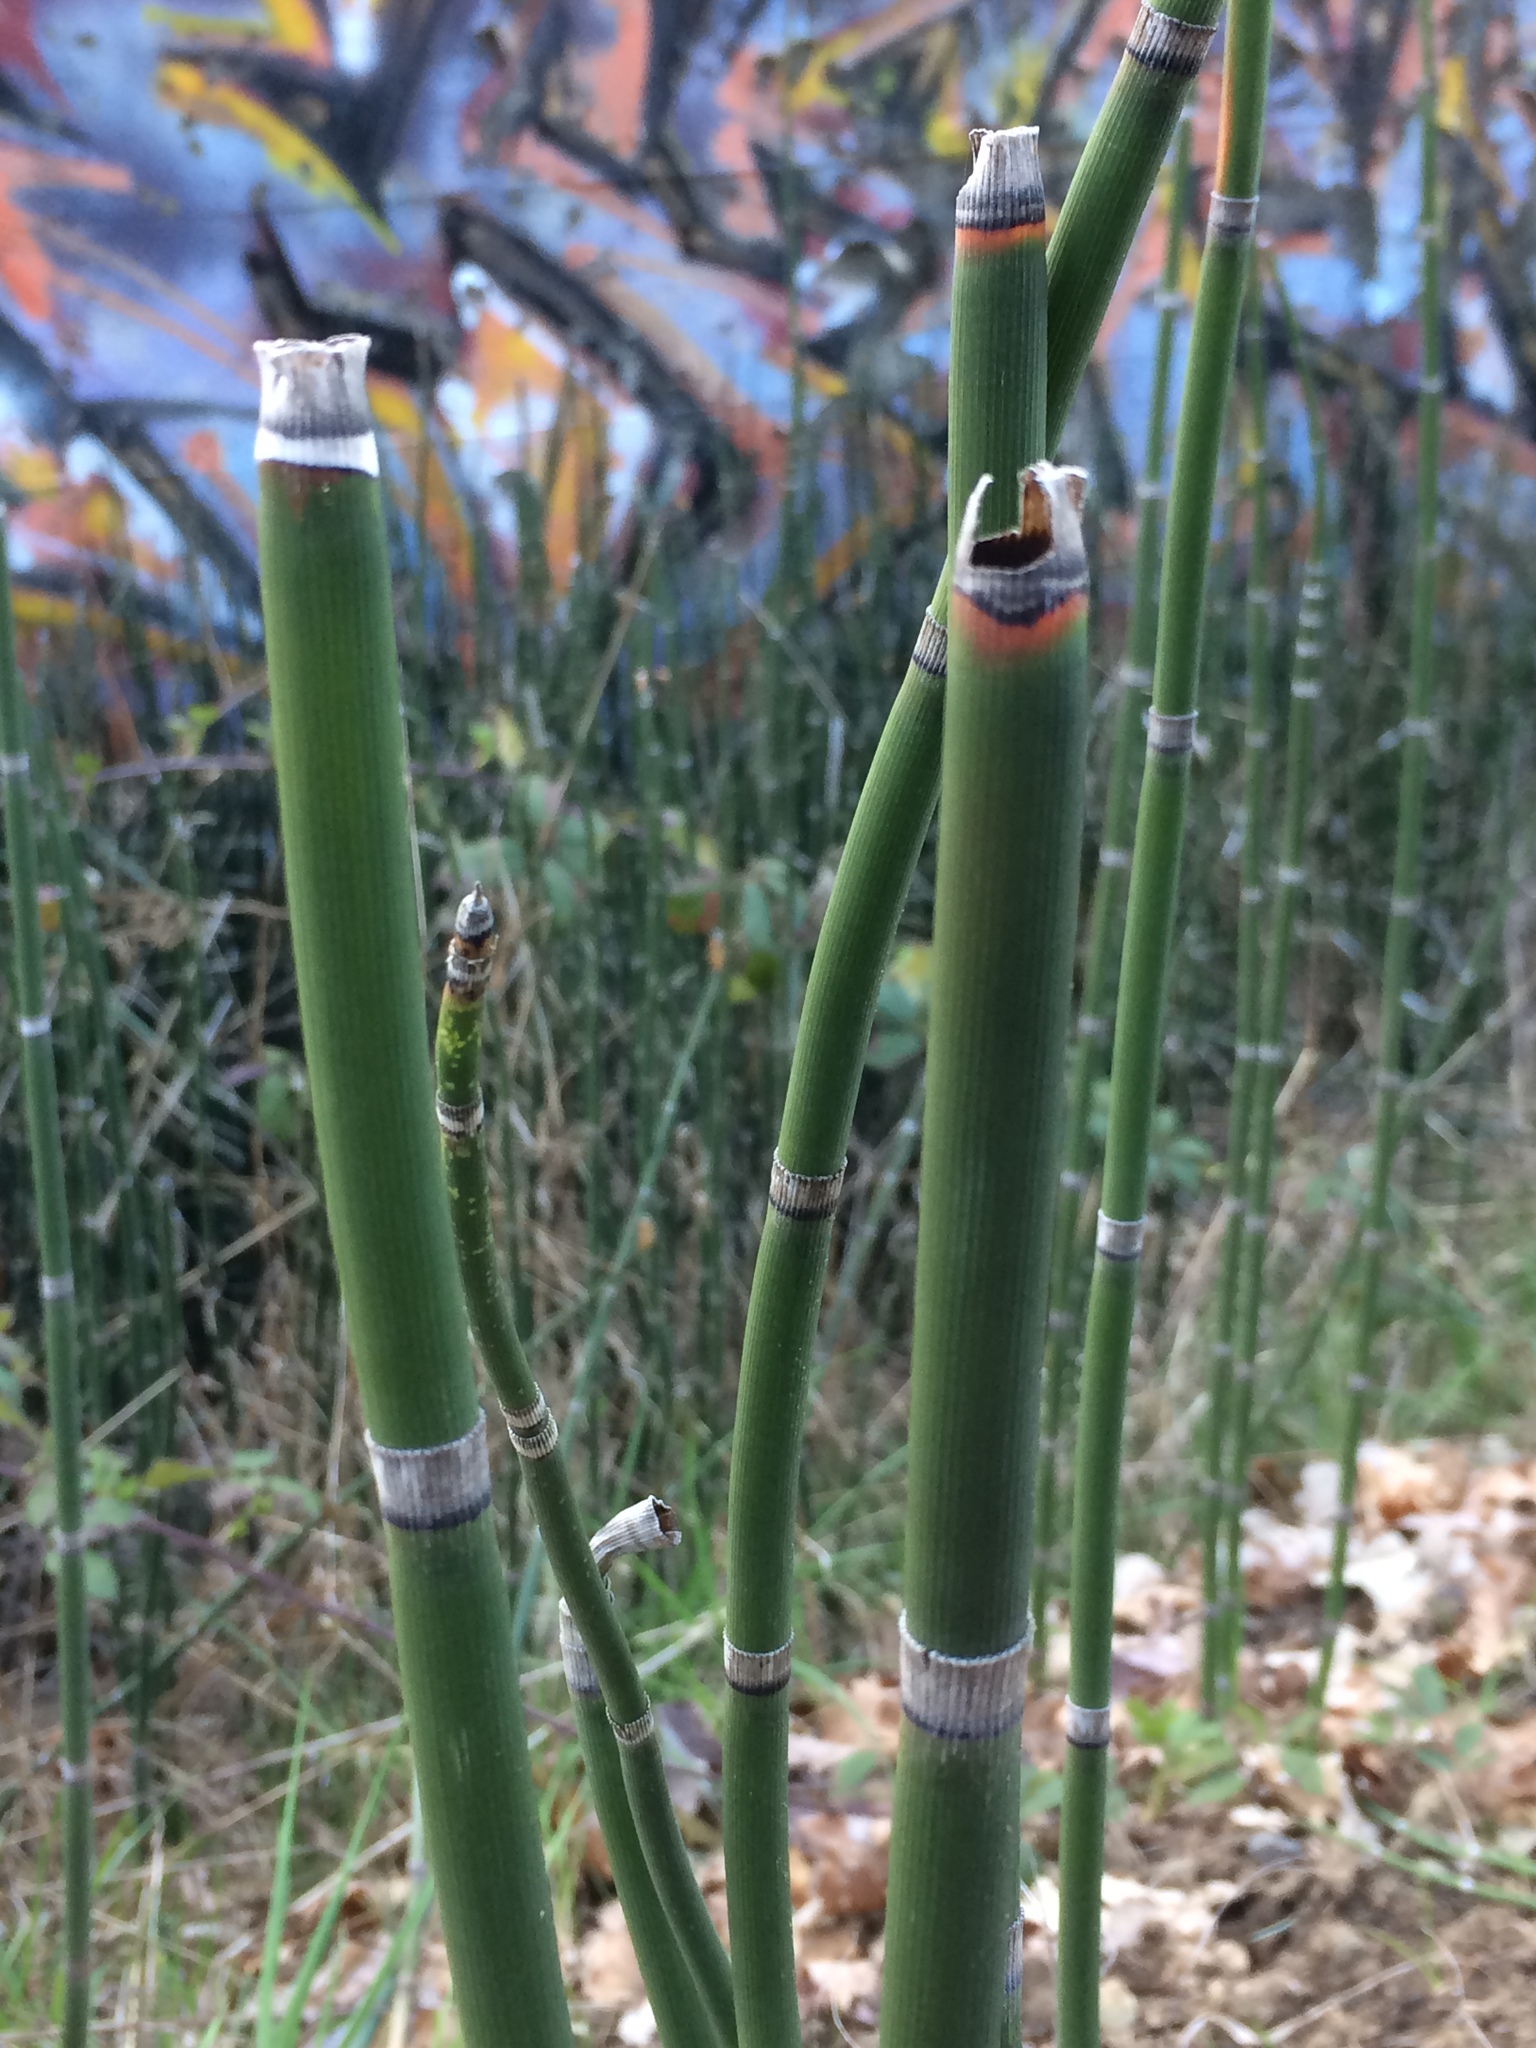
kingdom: Plantae
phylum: Tracheophyta
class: Polypodiopsida
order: Equisetales
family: Equisetaceae
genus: Equisetum
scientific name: Equisetum hyemale
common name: Rough horsetail
